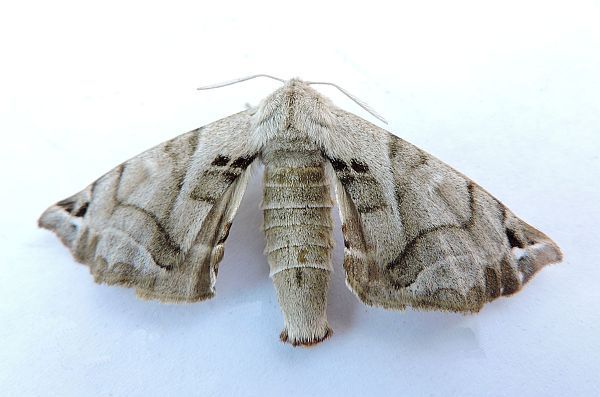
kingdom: Animalia
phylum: Arthropoda
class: Insecta
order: Lepidoptera
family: Apatelodidae
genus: Hygrochroa
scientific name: Hygrochroa Apatelodes pudefacta
